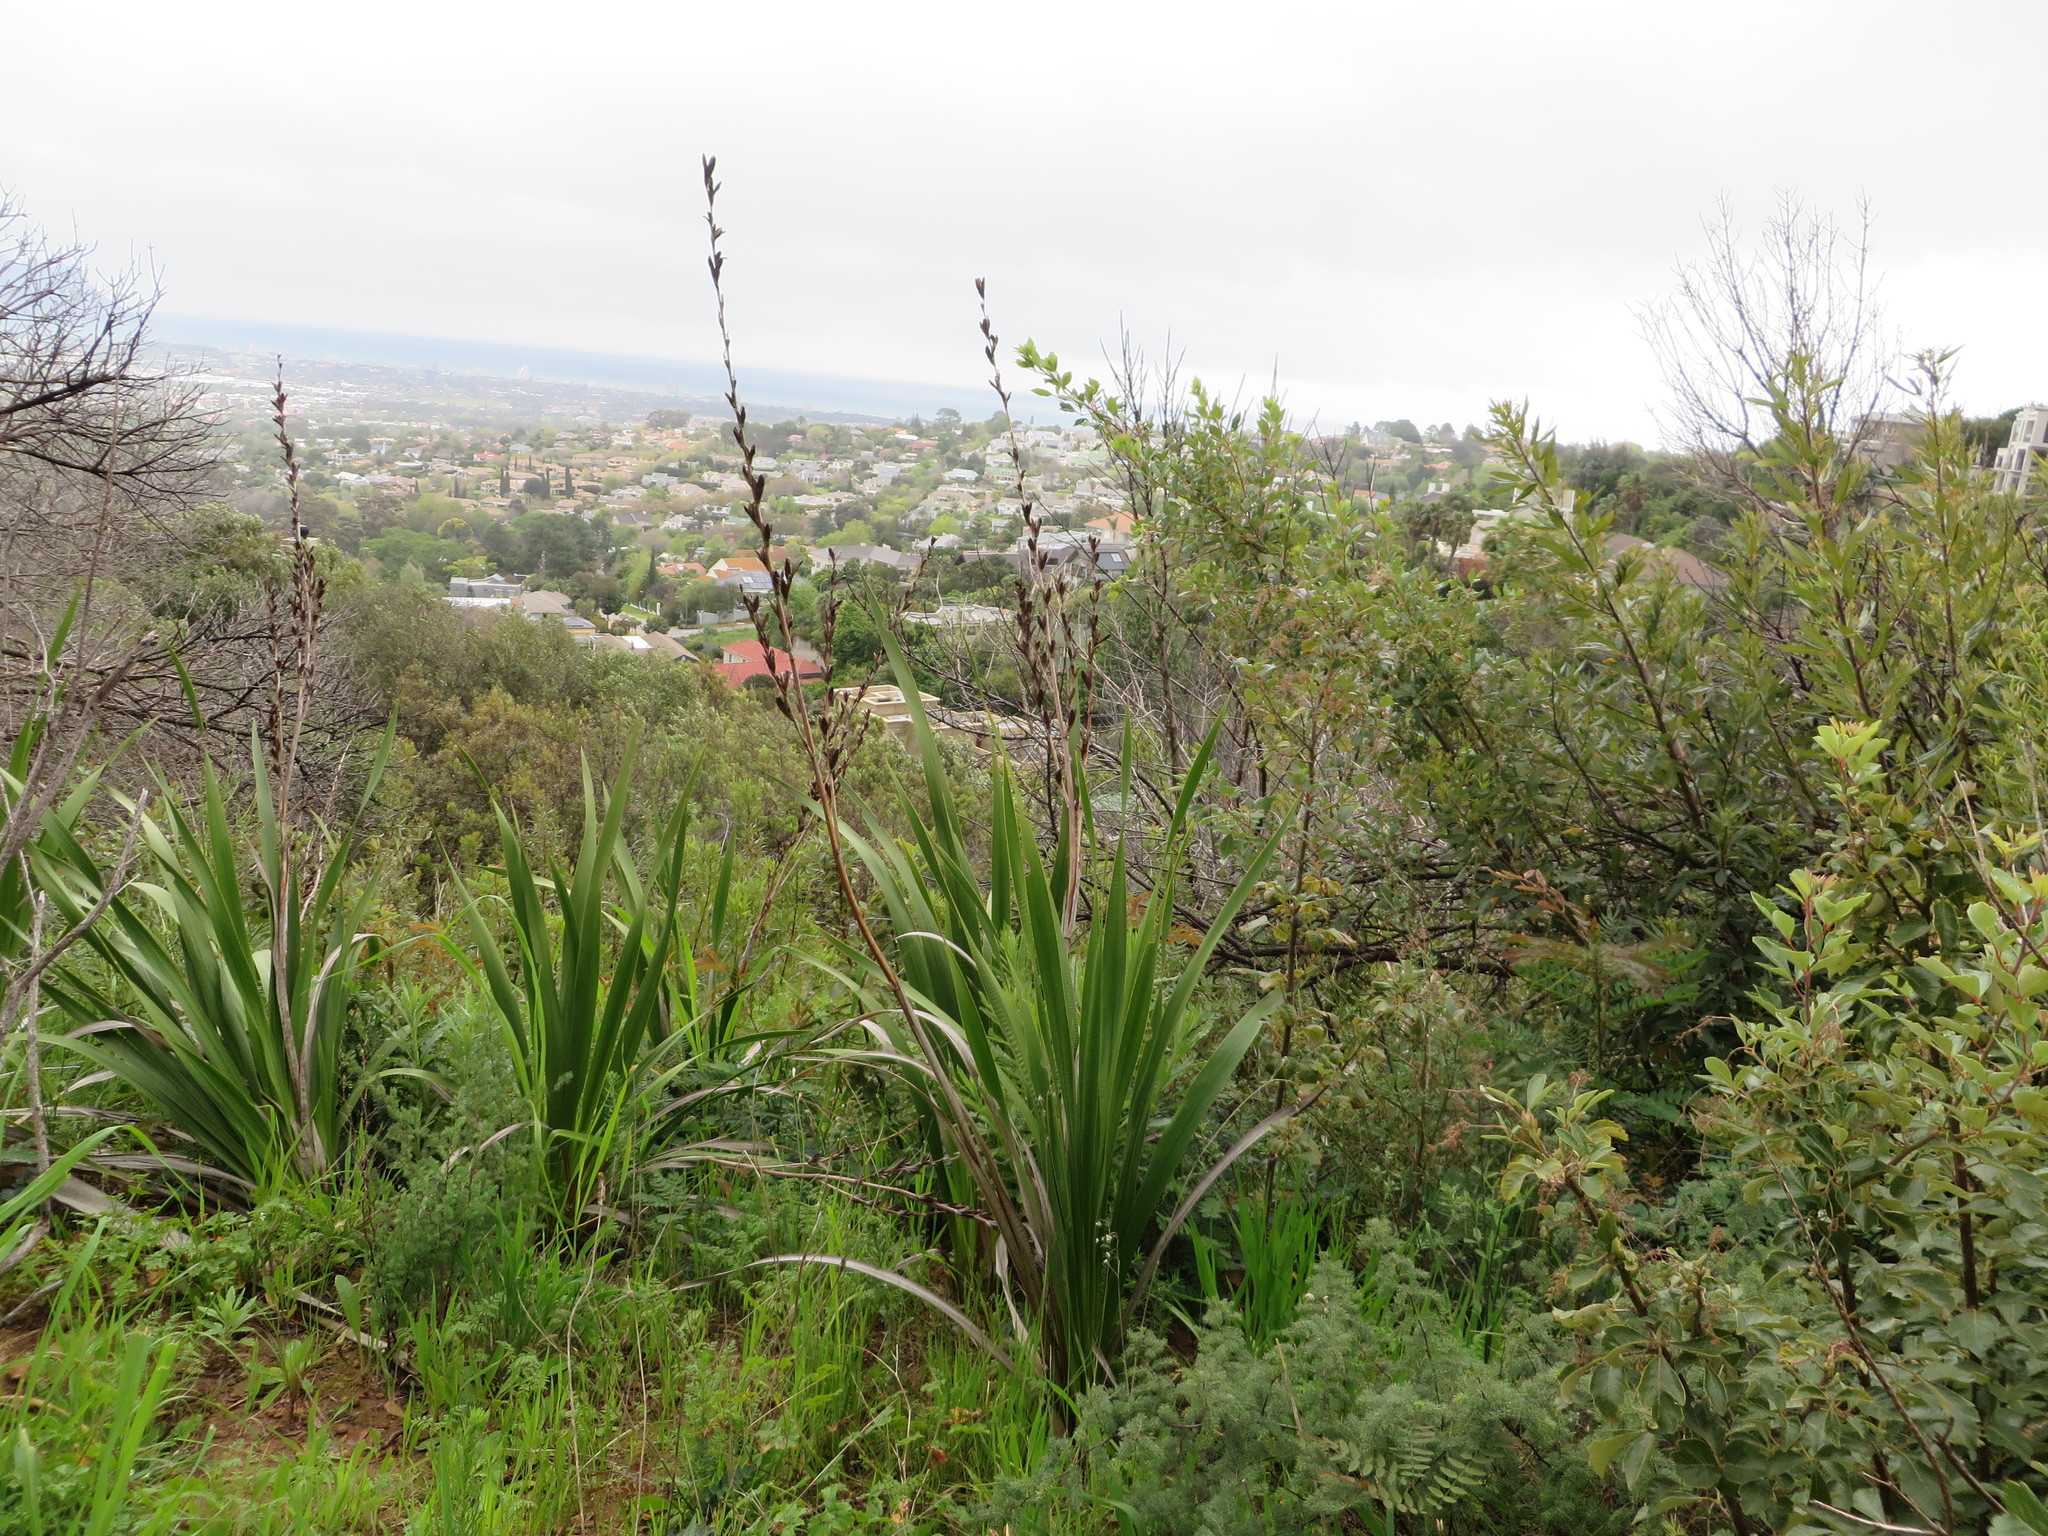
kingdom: Plantae
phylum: Tracheophyta
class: Liliopsida
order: Asparagales
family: Iridaceae
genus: Watsonia
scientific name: Watsonia borbonica
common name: Bugle-lily
